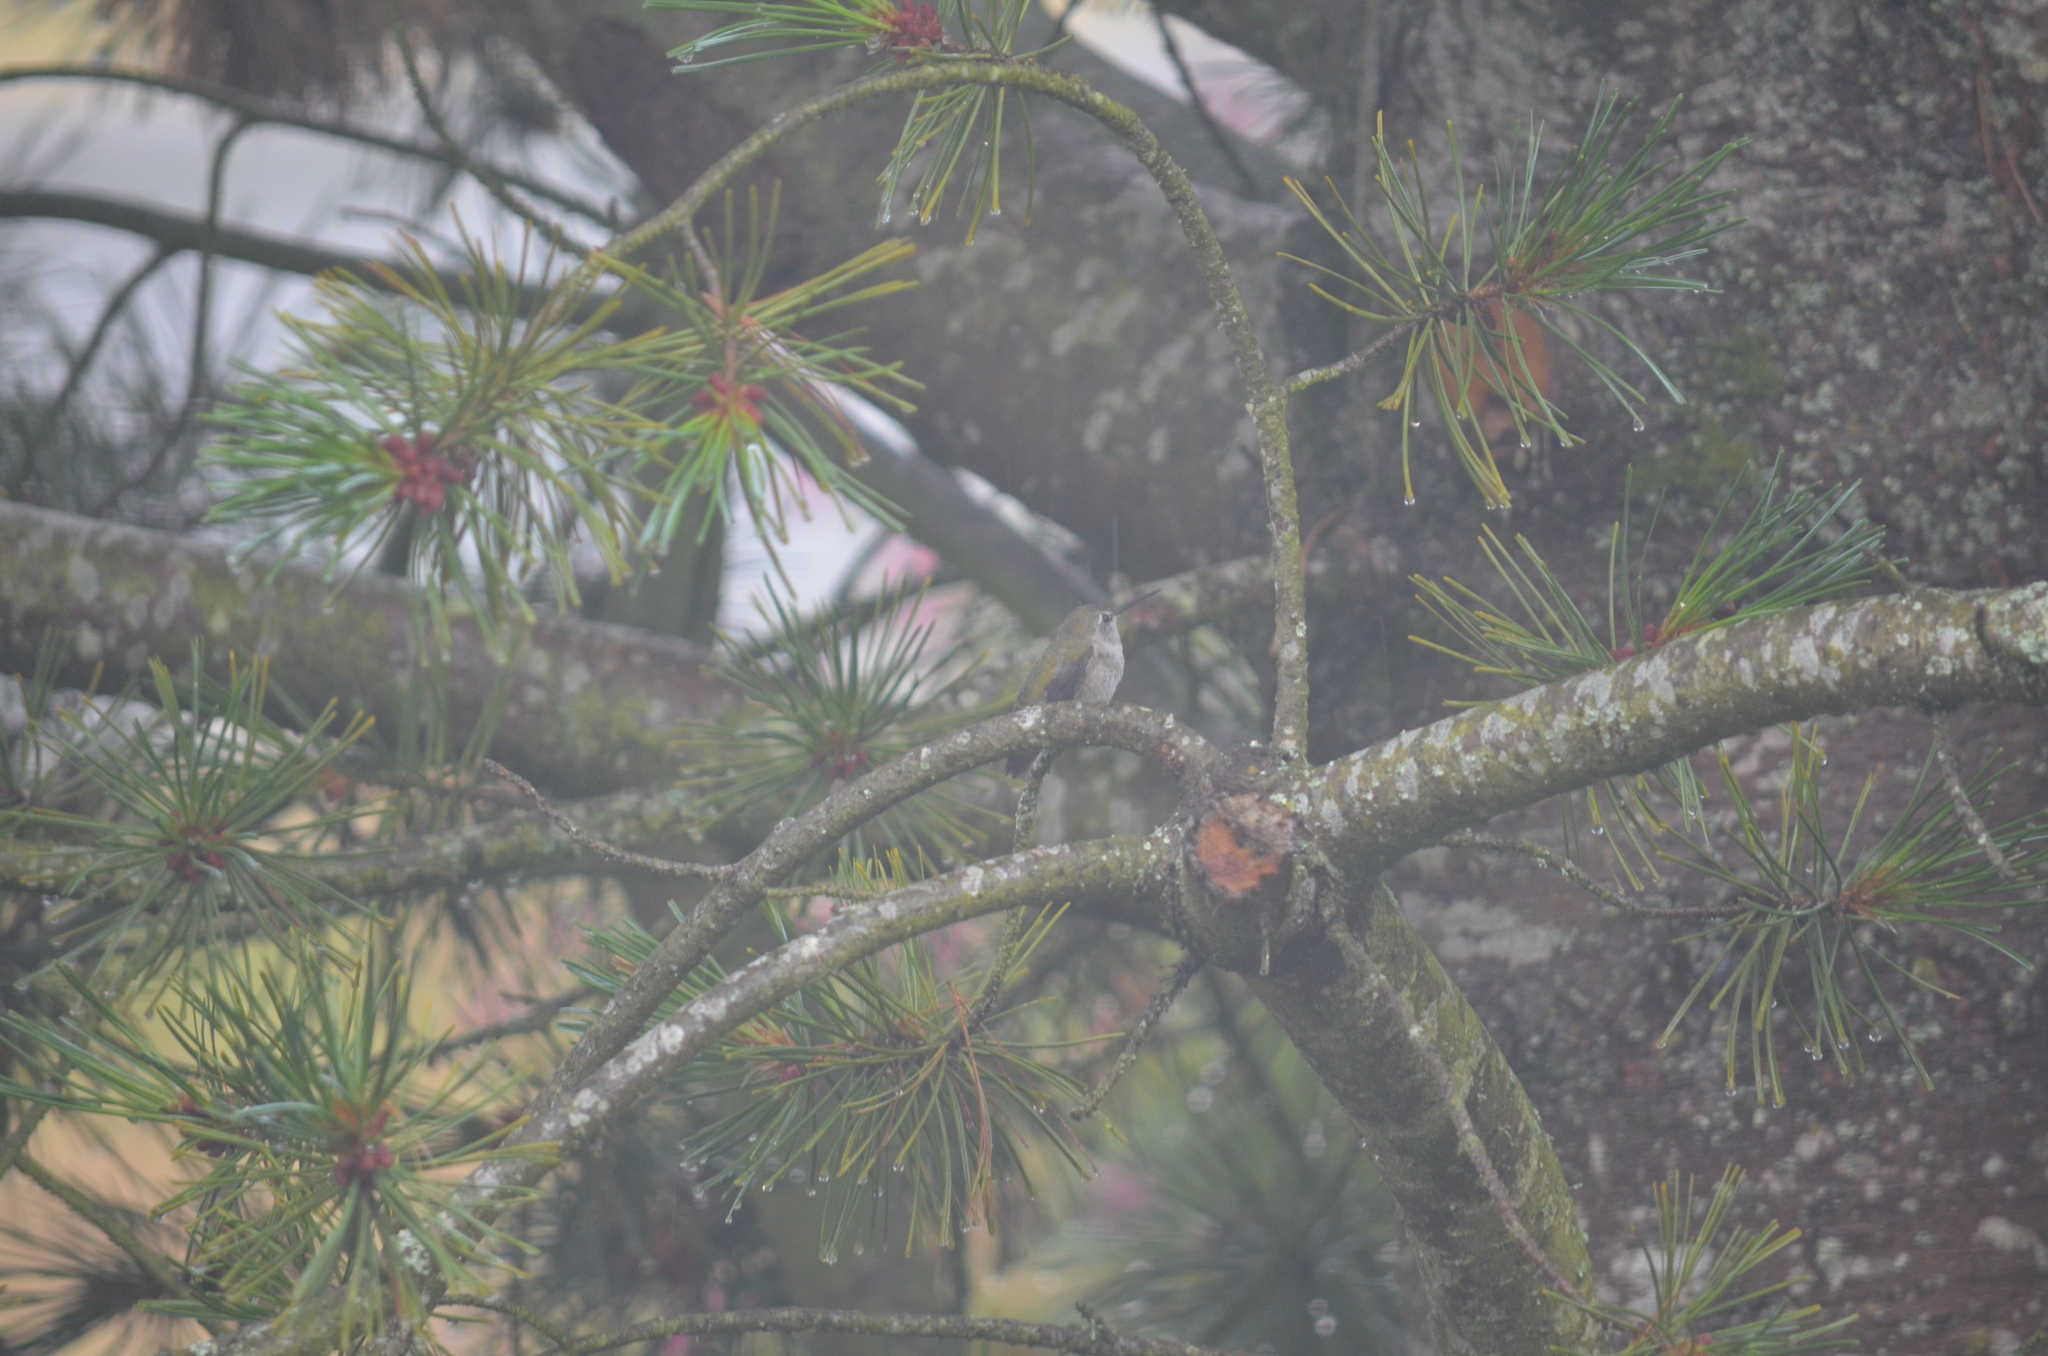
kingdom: Animalia
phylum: Chordata
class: Aves
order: Apodiformes
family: Trochilidae
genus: Calypte
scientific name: Calypte anna
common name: Anna's hummingbird
